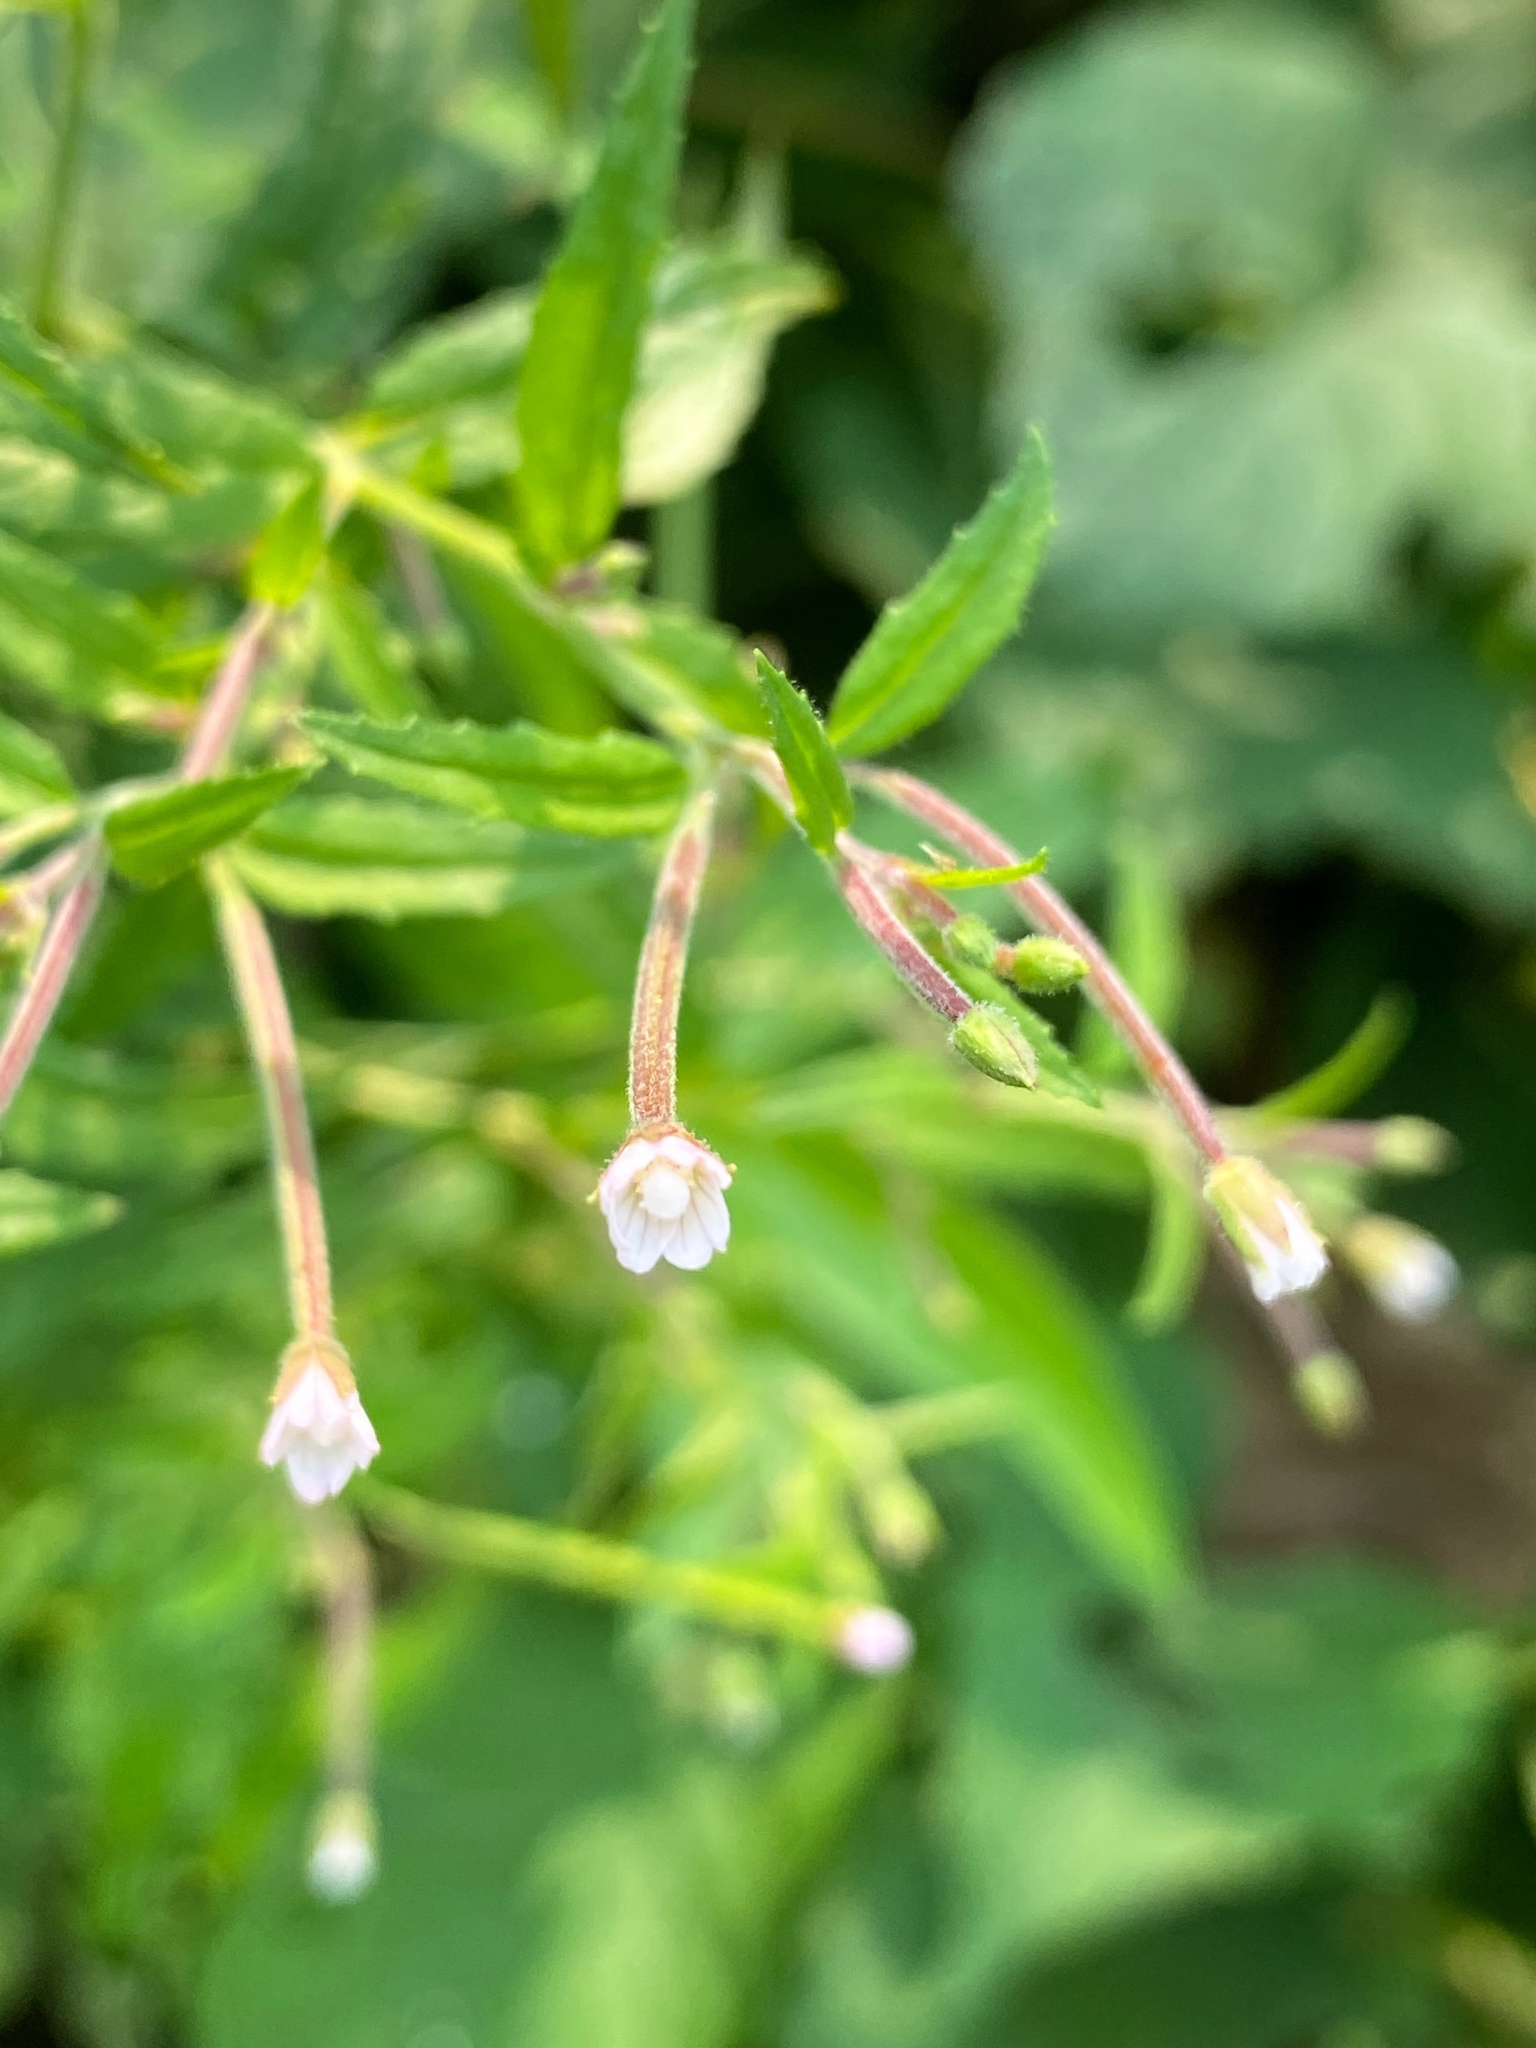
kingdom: Plantae
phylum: Tracheophyta
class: Magnoliopsida
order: Myrtales
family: Onagraceae
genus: Epilobium
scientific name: Epilobium coloratum
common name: Bronze willowherb
